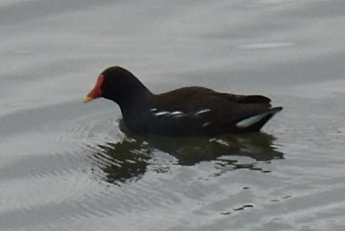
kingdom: Animalia
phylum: Chordata
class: Aves
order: Gruiformes
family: Rallidae
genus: Gallinula
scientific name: Gallinula chloropus
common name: Common moorhen
